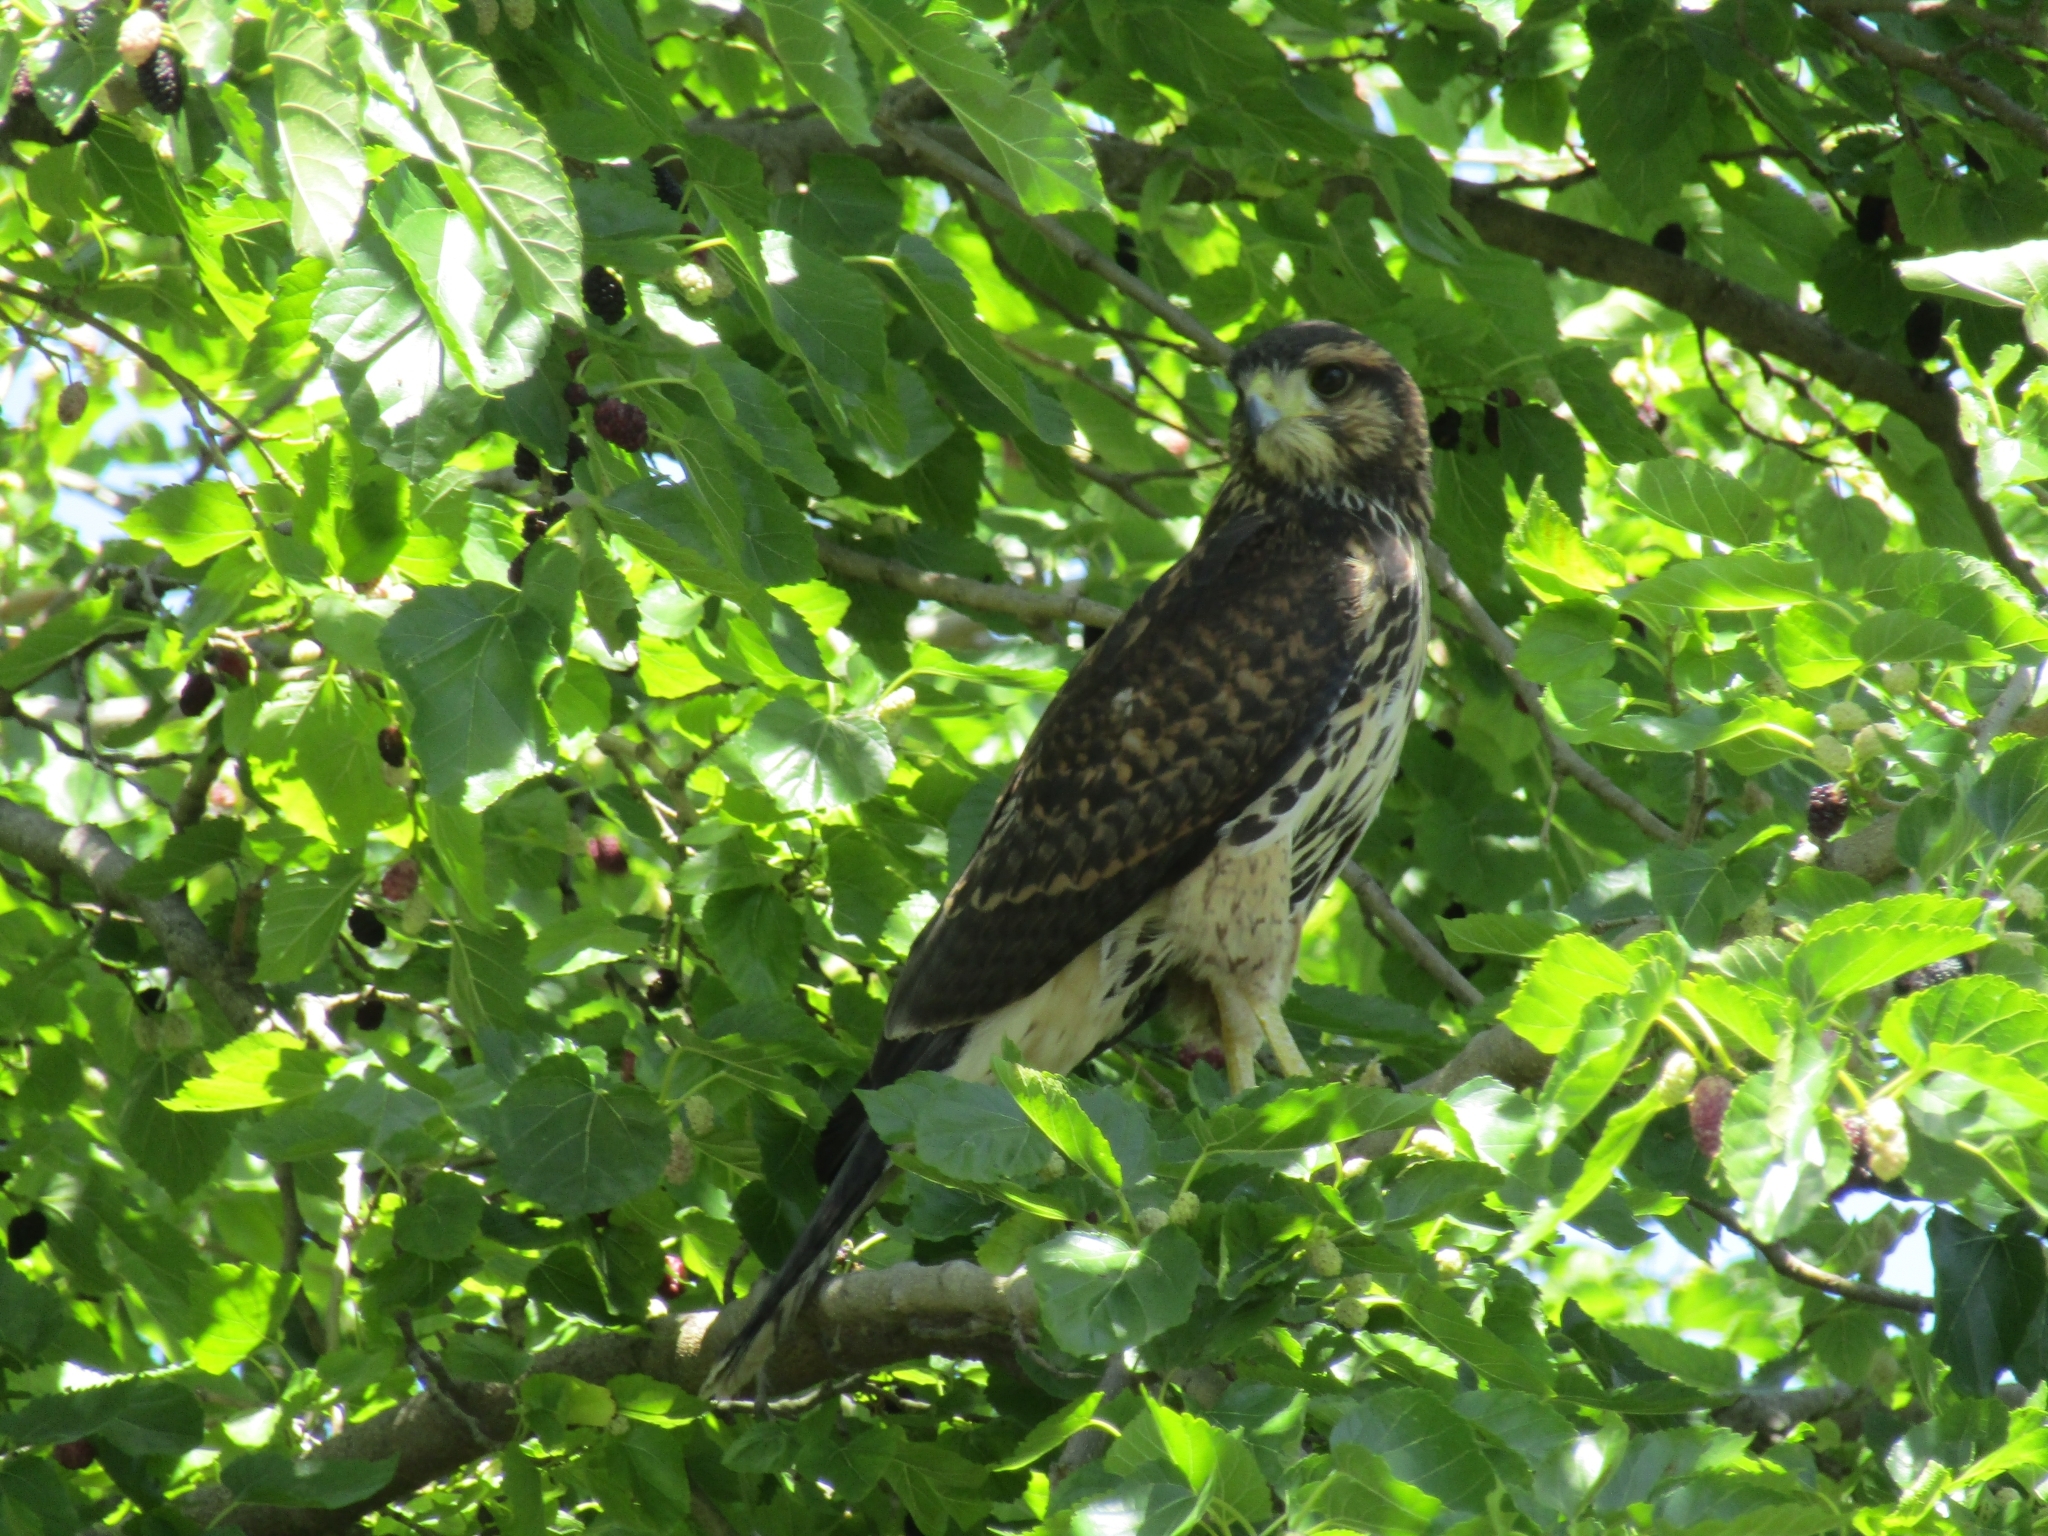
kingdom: Animalia
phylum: Chordata
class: Aves
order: Accipitriformes
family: Accipitridae
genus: Parabuteo
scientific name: Parabuteo unicinctus
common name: Harris's hawk
